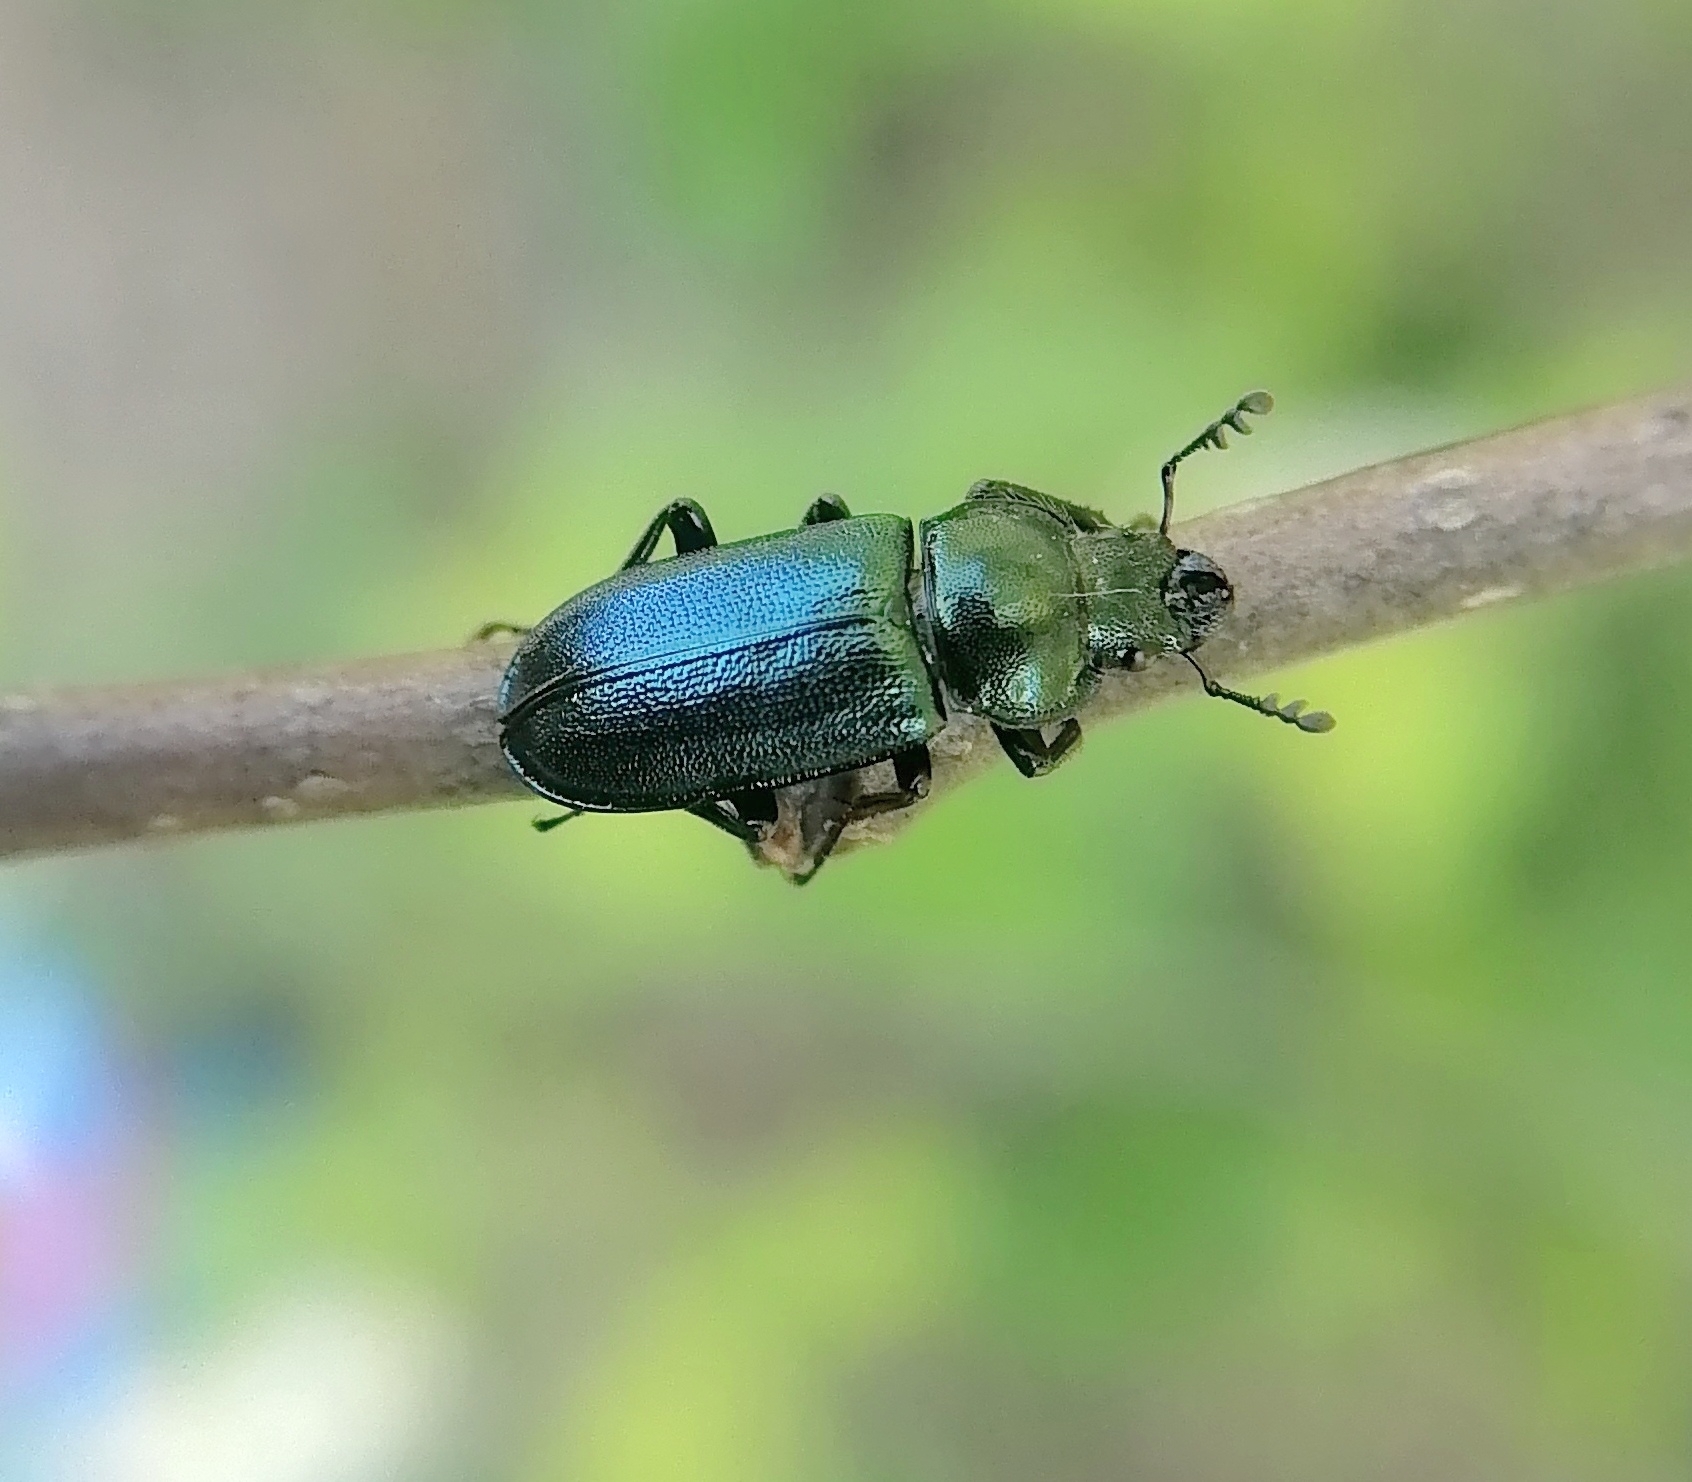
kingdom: Animalia
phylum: Arthropoda
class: Insecta
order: Coleoptera
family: Lucanidae
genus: Platycerus
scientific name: Platycerus caraboides
